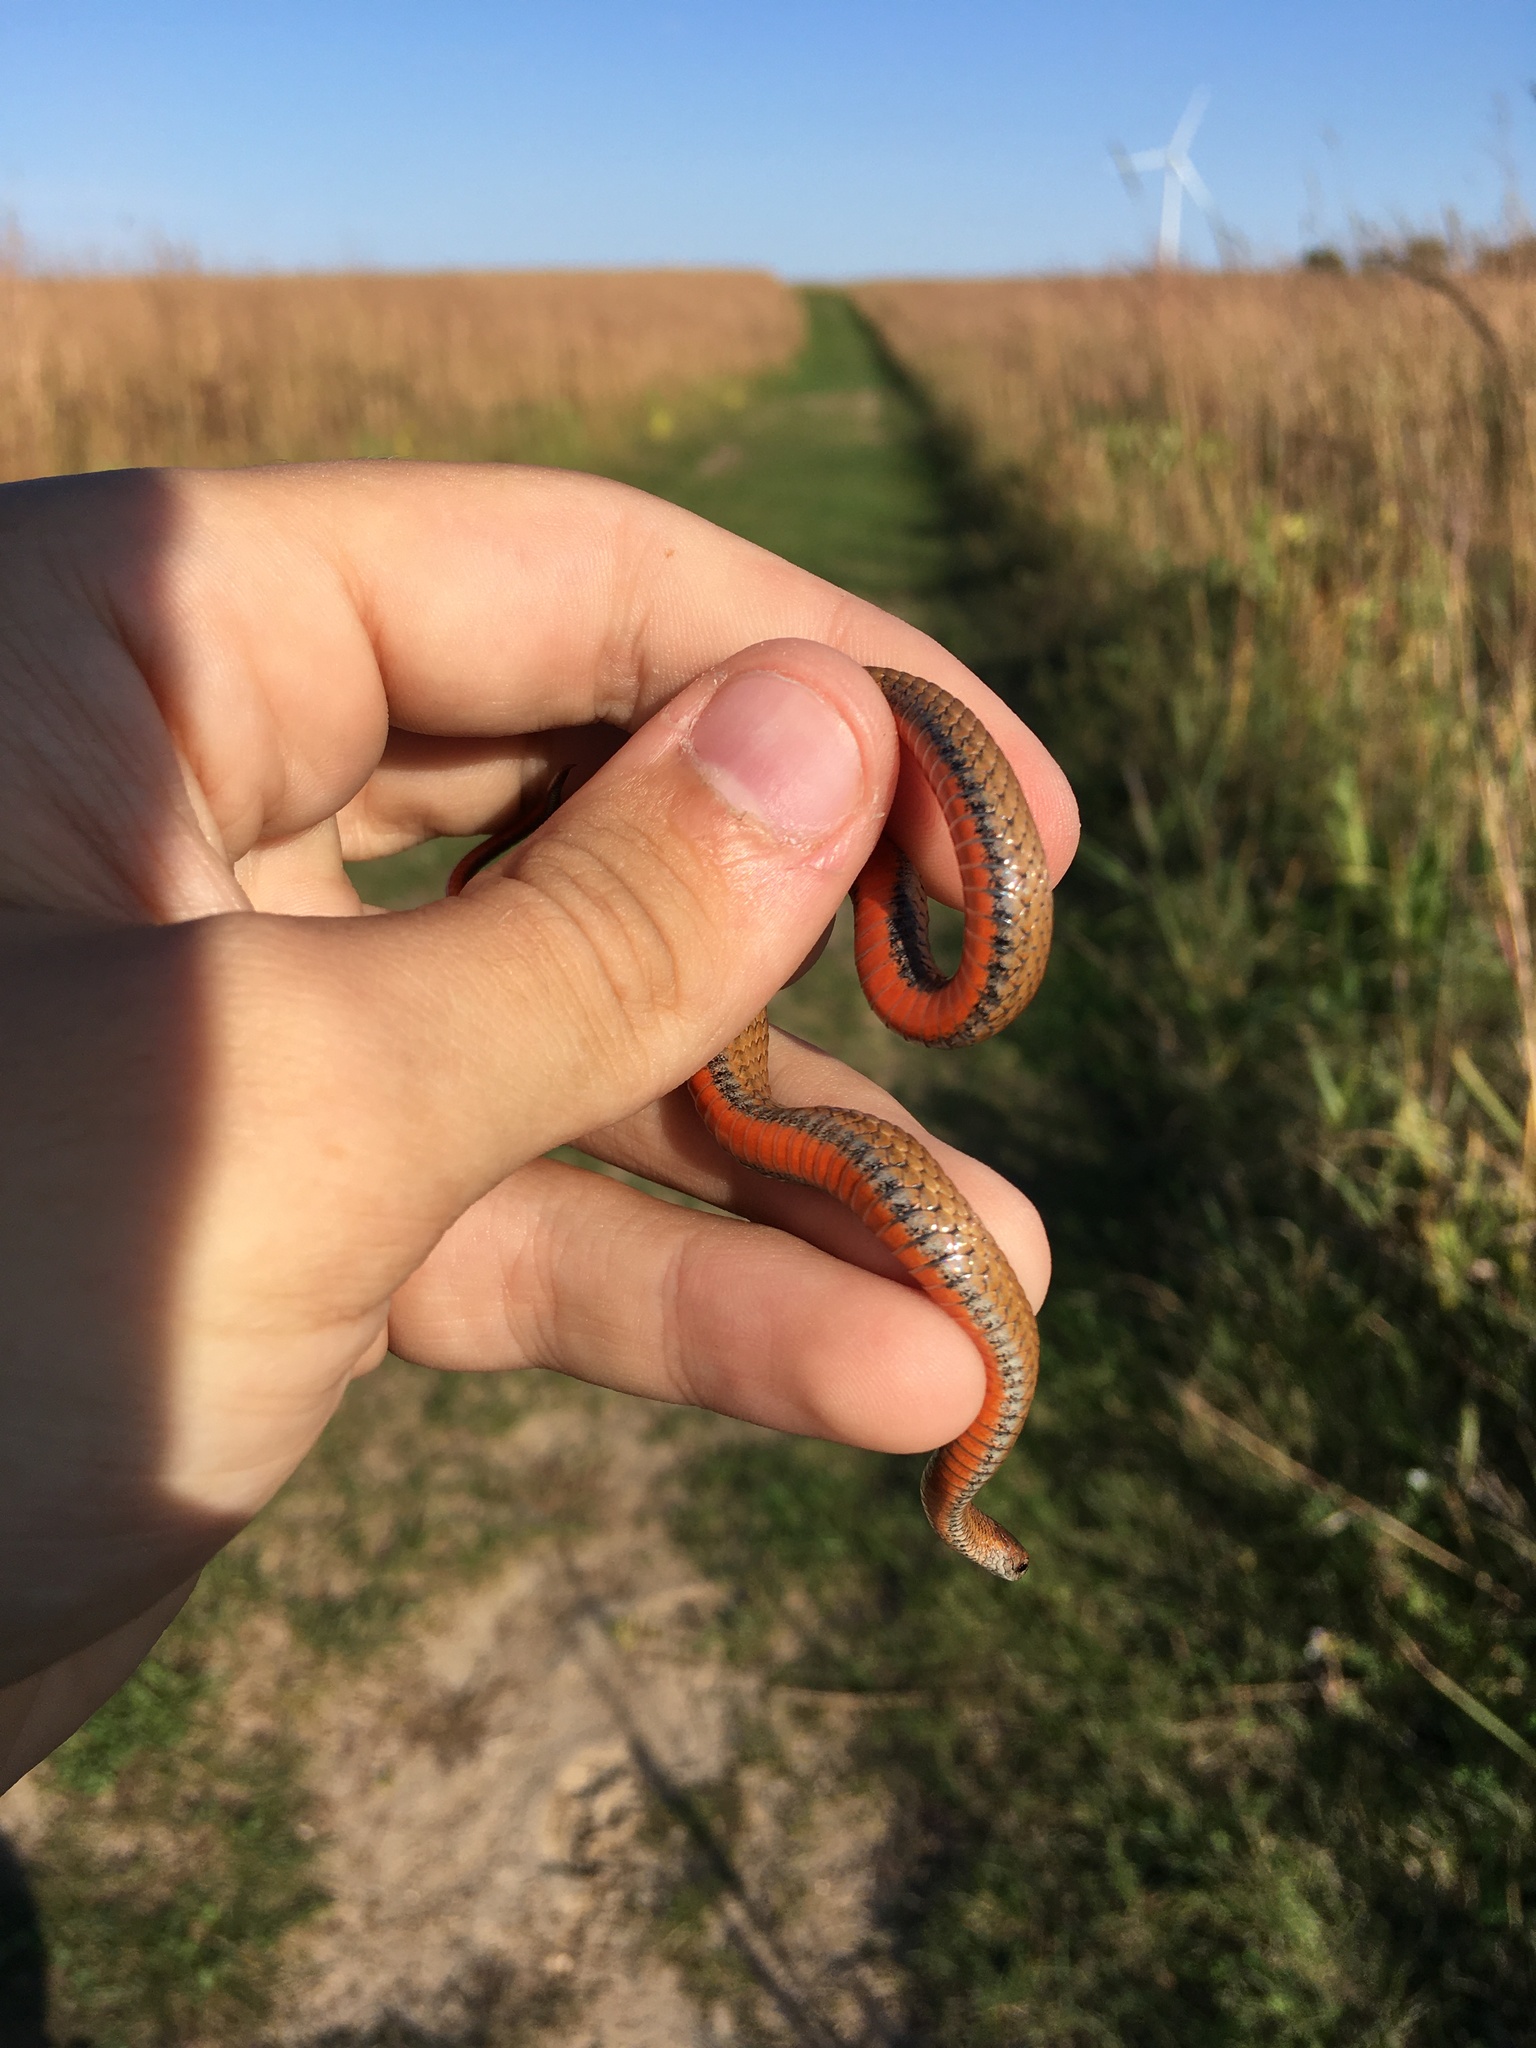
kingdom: Animalia
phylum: Chordata
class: Squamata
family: Colubridae
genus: Storeria
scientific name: Storeria occipitomaculata
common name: Redbelly snake
